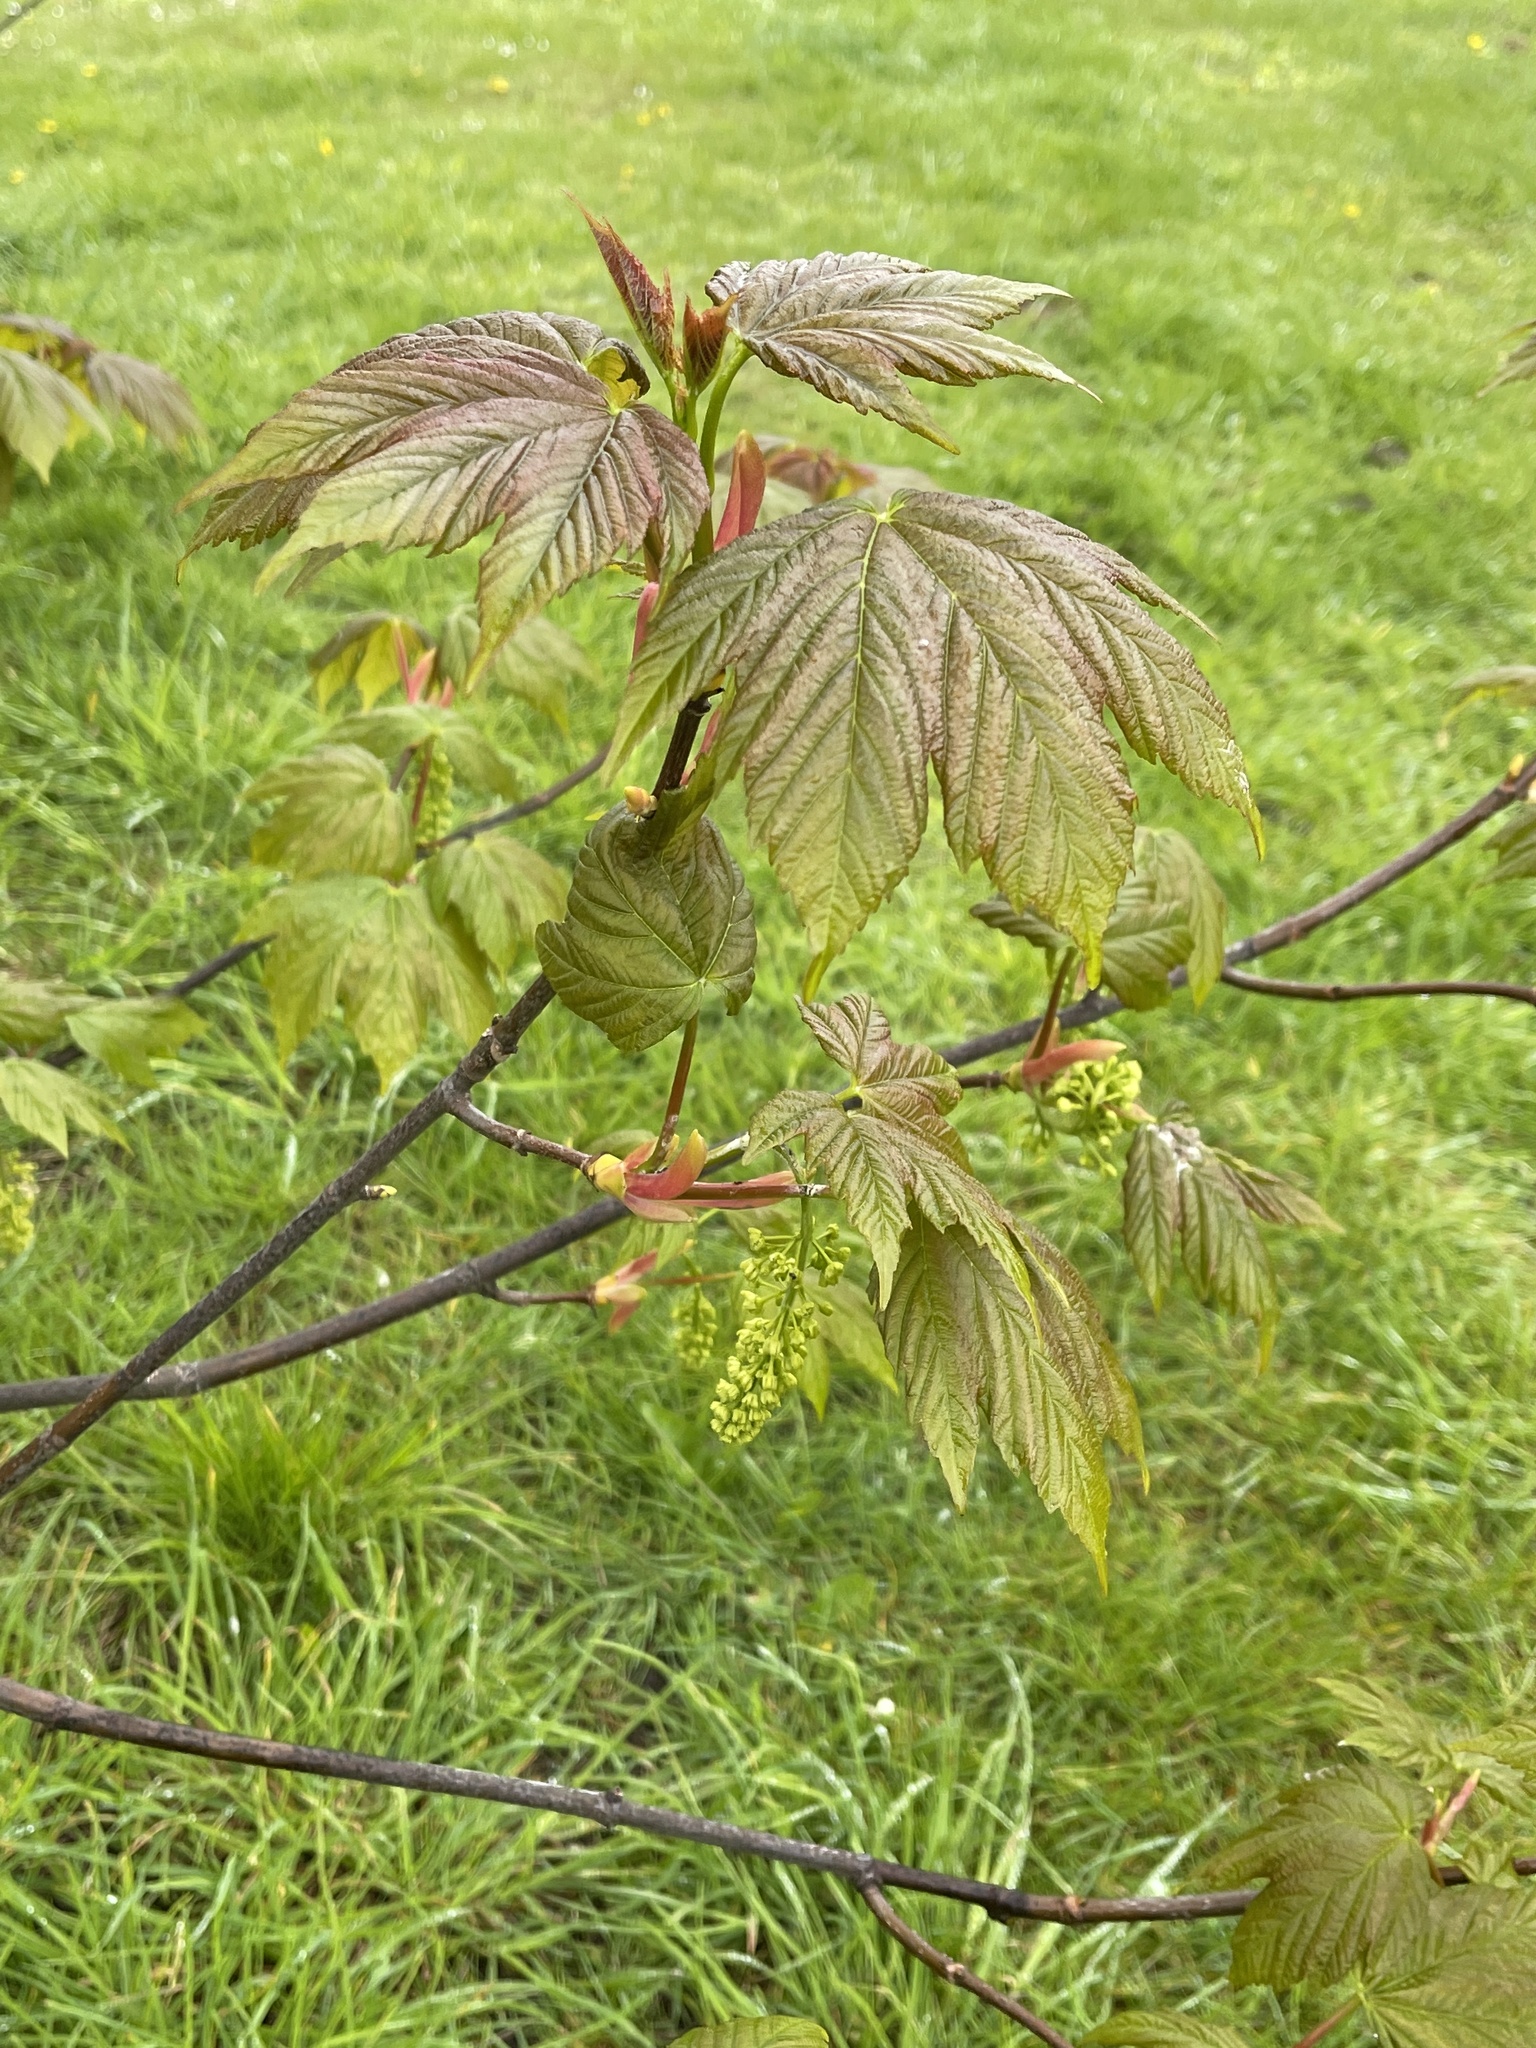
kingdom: Plantae
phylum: Tracheophyta
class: Magnoliopsida
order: Sapindales
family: Sapindaceae
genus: Acer
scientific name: Acer pseudoplatanus
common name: Sycamore
